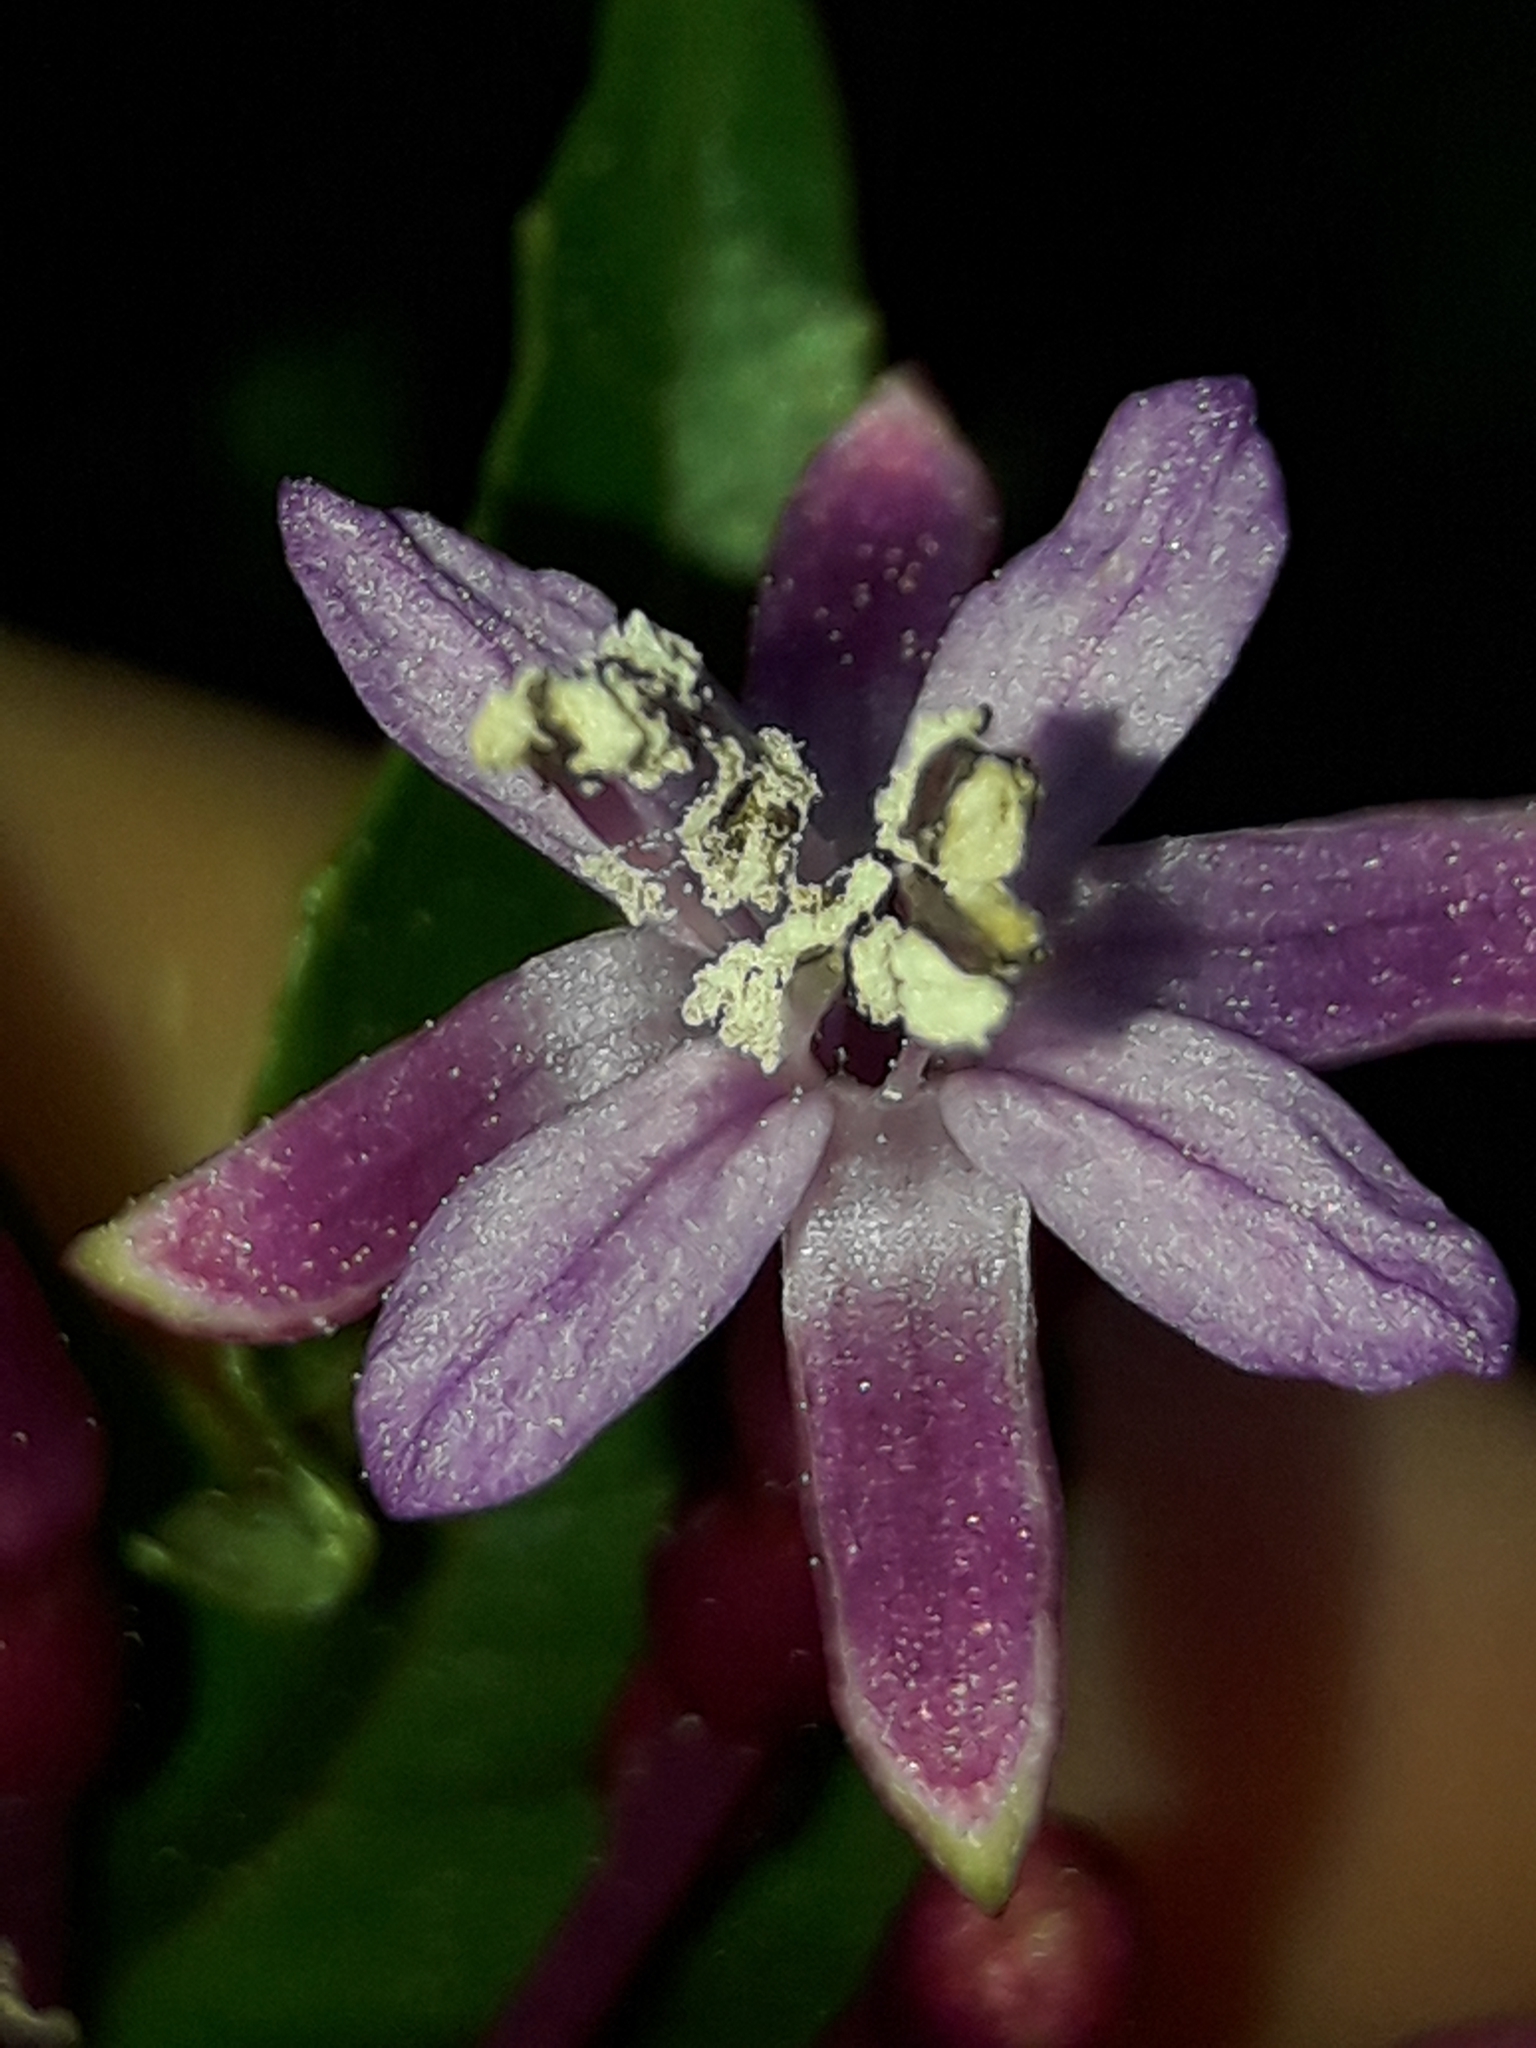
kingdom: Plantae
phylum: Tracheophyta
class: Magnoliopsida
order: Myrtales
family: Onagraceae
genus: Fuchsia
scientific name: Fuchsia paniculata
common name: Shrubby fuchsia
